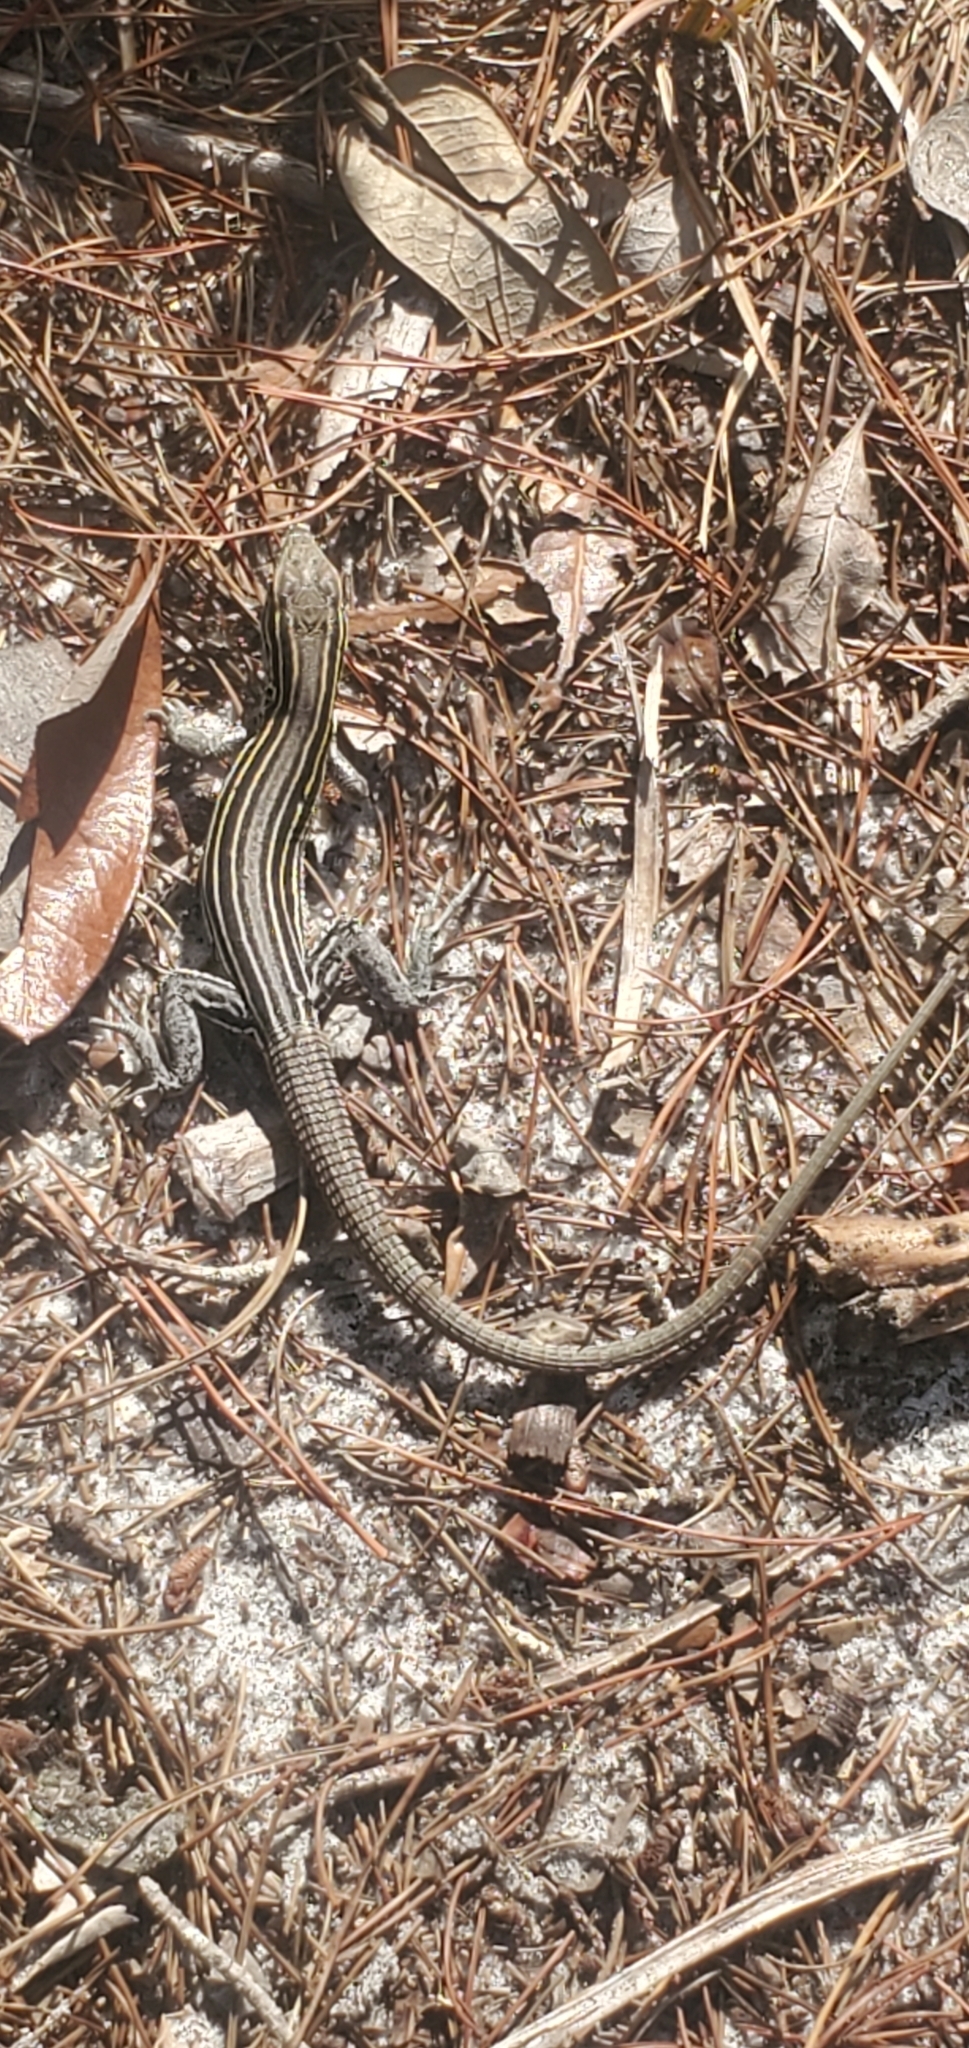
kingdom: Animalia
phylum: Chordata
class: Squamata
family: Teiidae
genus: Aspidoscelis
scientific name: Aspidoscelis sexlineatus
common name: Six-lined racerunner
